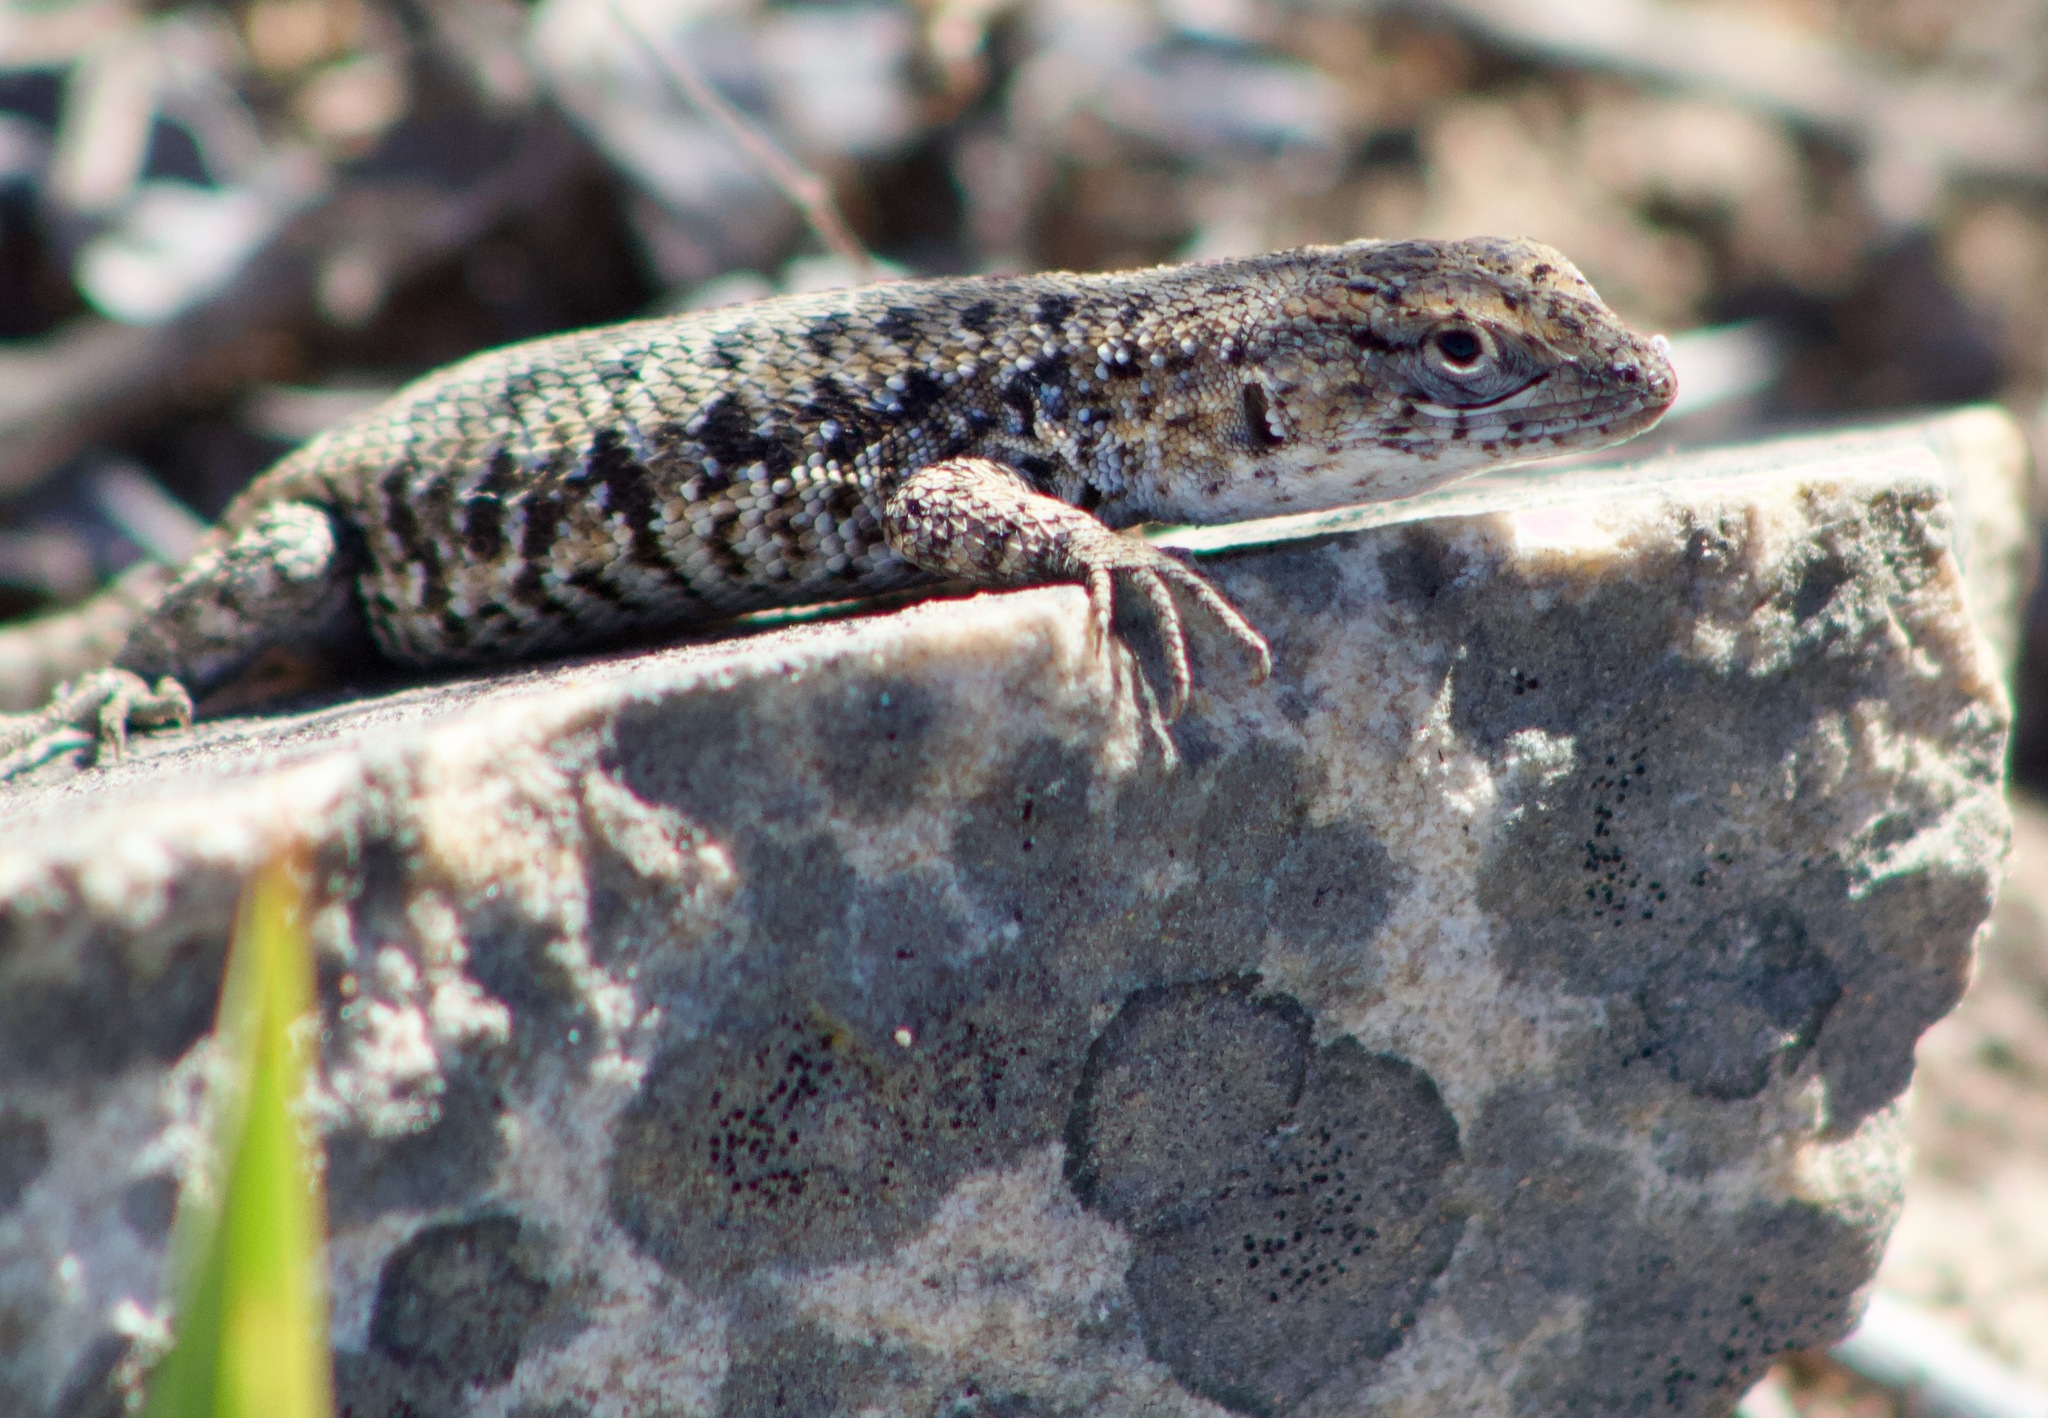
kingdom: Animalia
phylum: Chordata
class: Squamata
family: Liolaemidae
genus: Liolaemus
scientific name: Liolaemus platei
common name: Braided tree iguana
